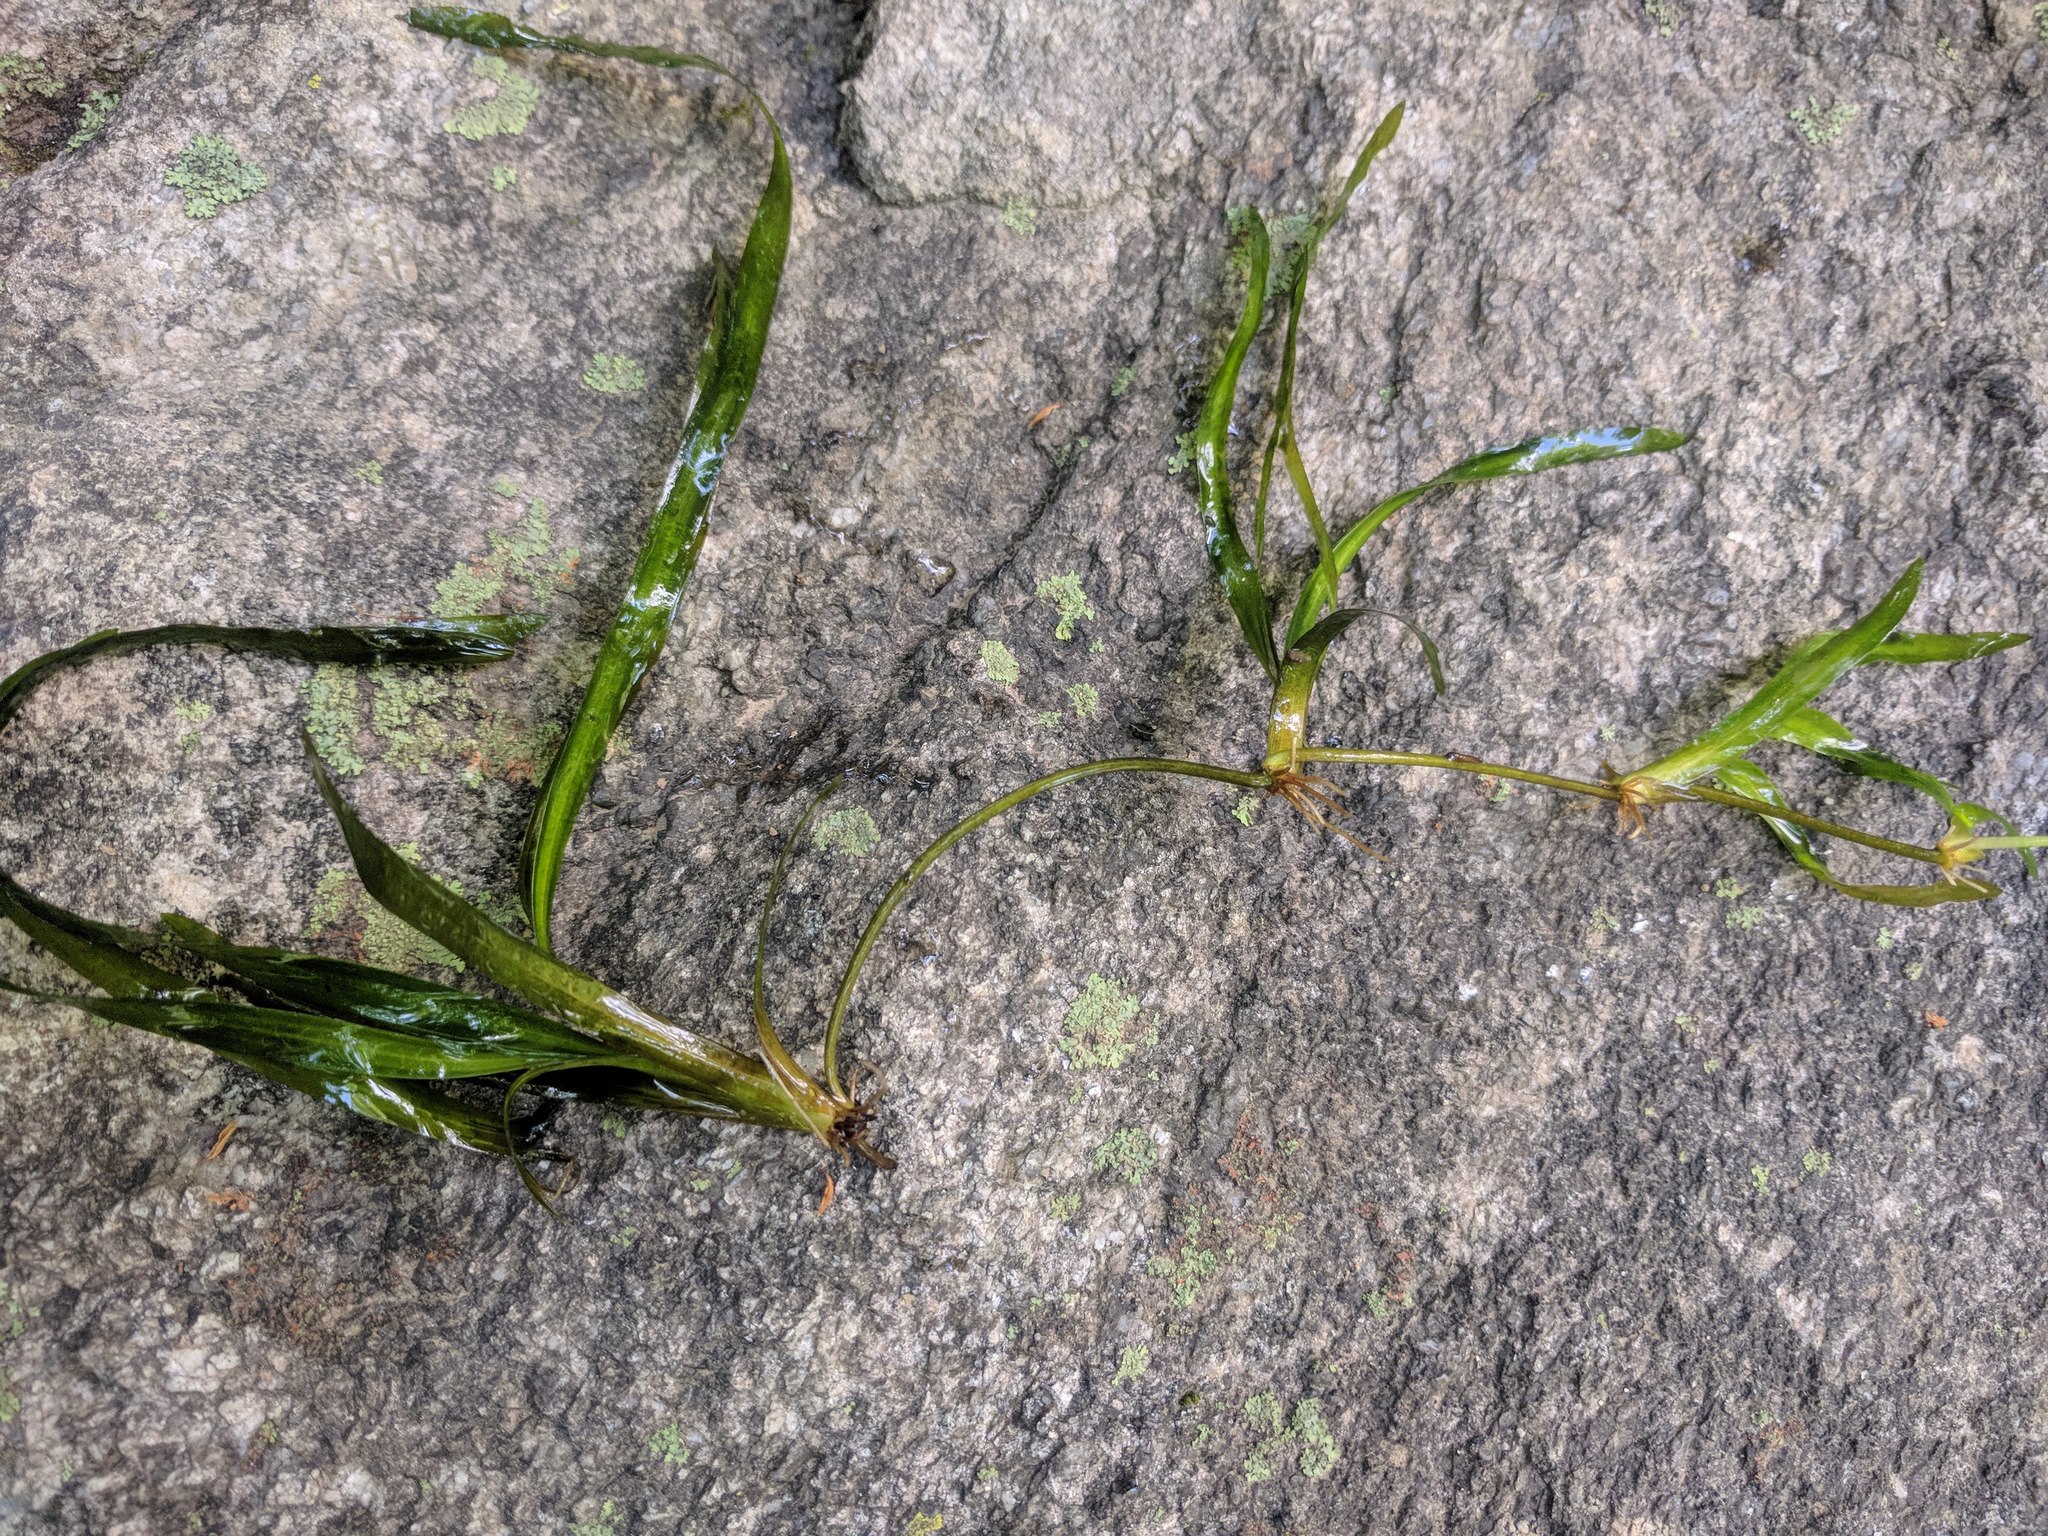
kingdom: Plantae
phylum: Tracheophyta
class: Liliopsida
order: Alismatales
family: Hydrocharitaceae
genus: Vallisneria
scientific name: Vallisneria americana
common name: American eelgrass
